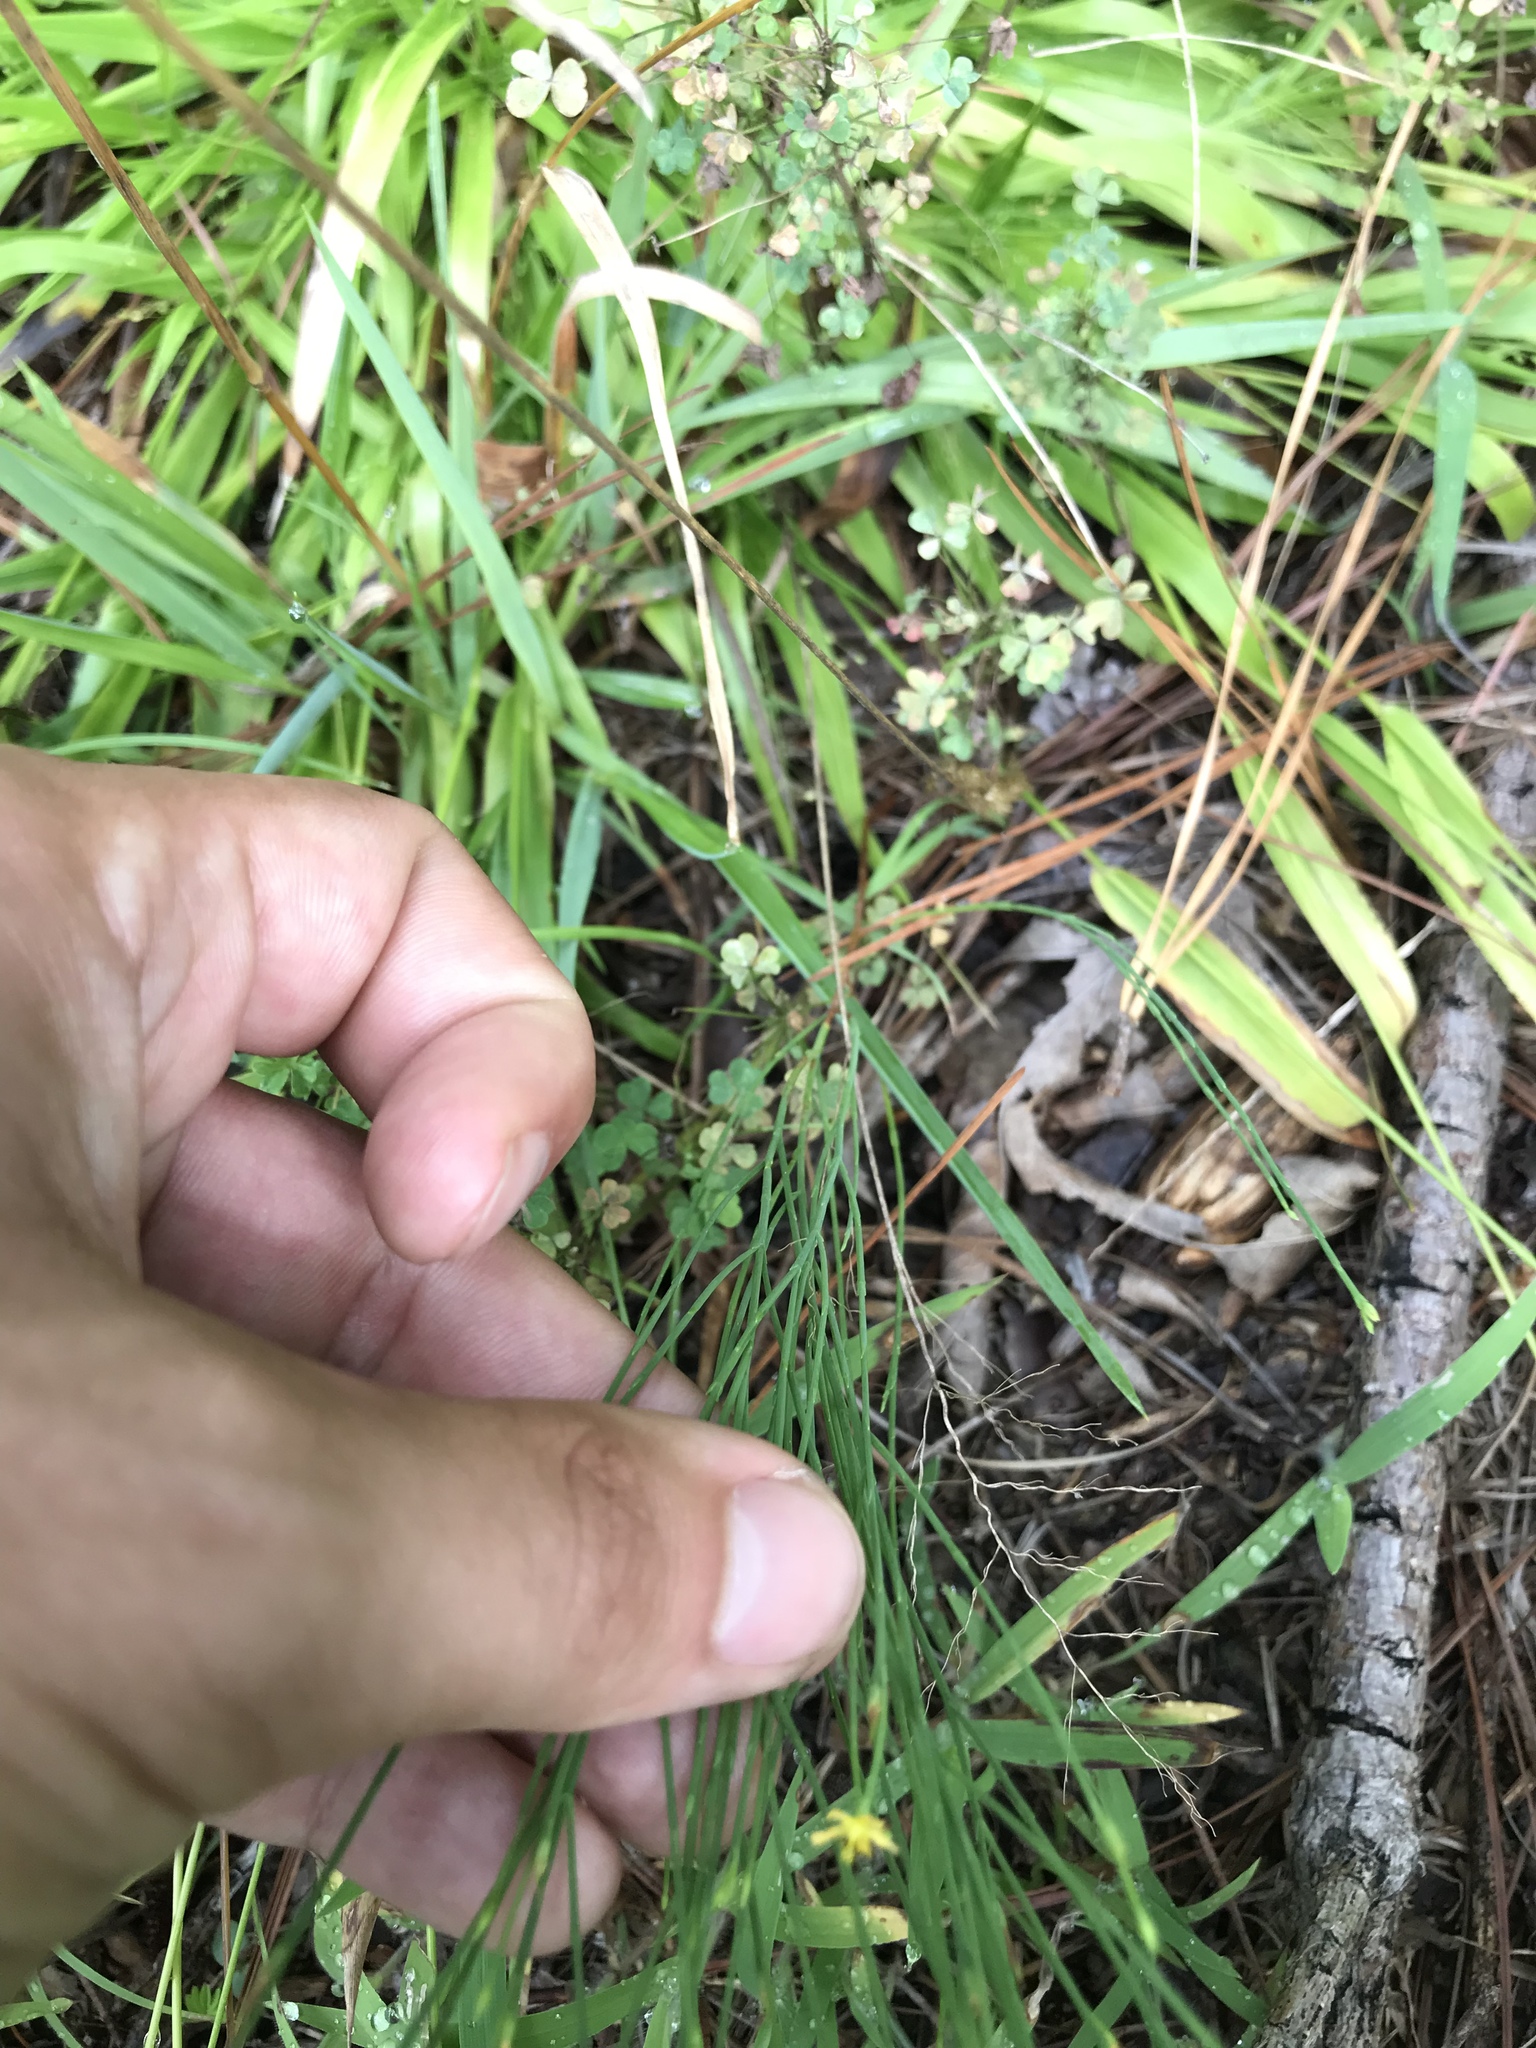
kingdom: Plantae
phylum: Tracheophyta
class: Magnoliopsida
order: Malpighiales
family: Hypericaceae
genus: Hypericum
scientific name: Hypericum gentianoides
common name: Gentian-leaved st. john's-wort
